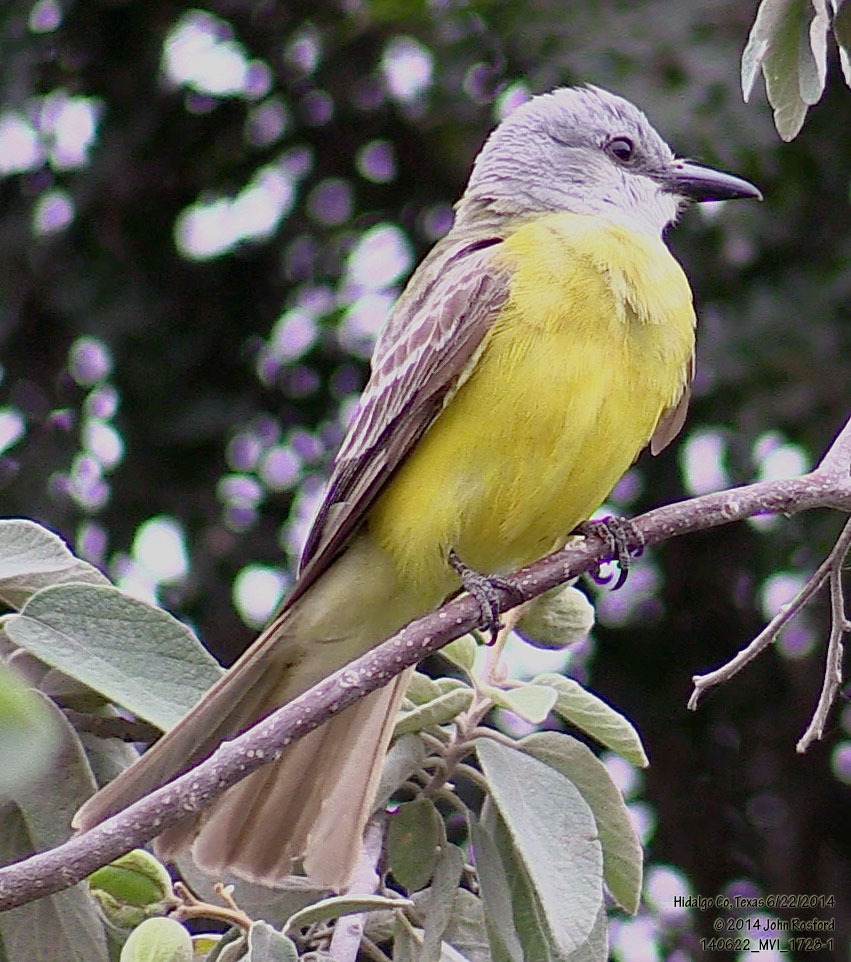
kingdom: Animalia
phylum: Chordata
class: Aves
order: Passeriformes
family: Tyrannidae
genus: Tyrannus
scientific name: Tyrannus couchii
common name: Couch's kingbird
